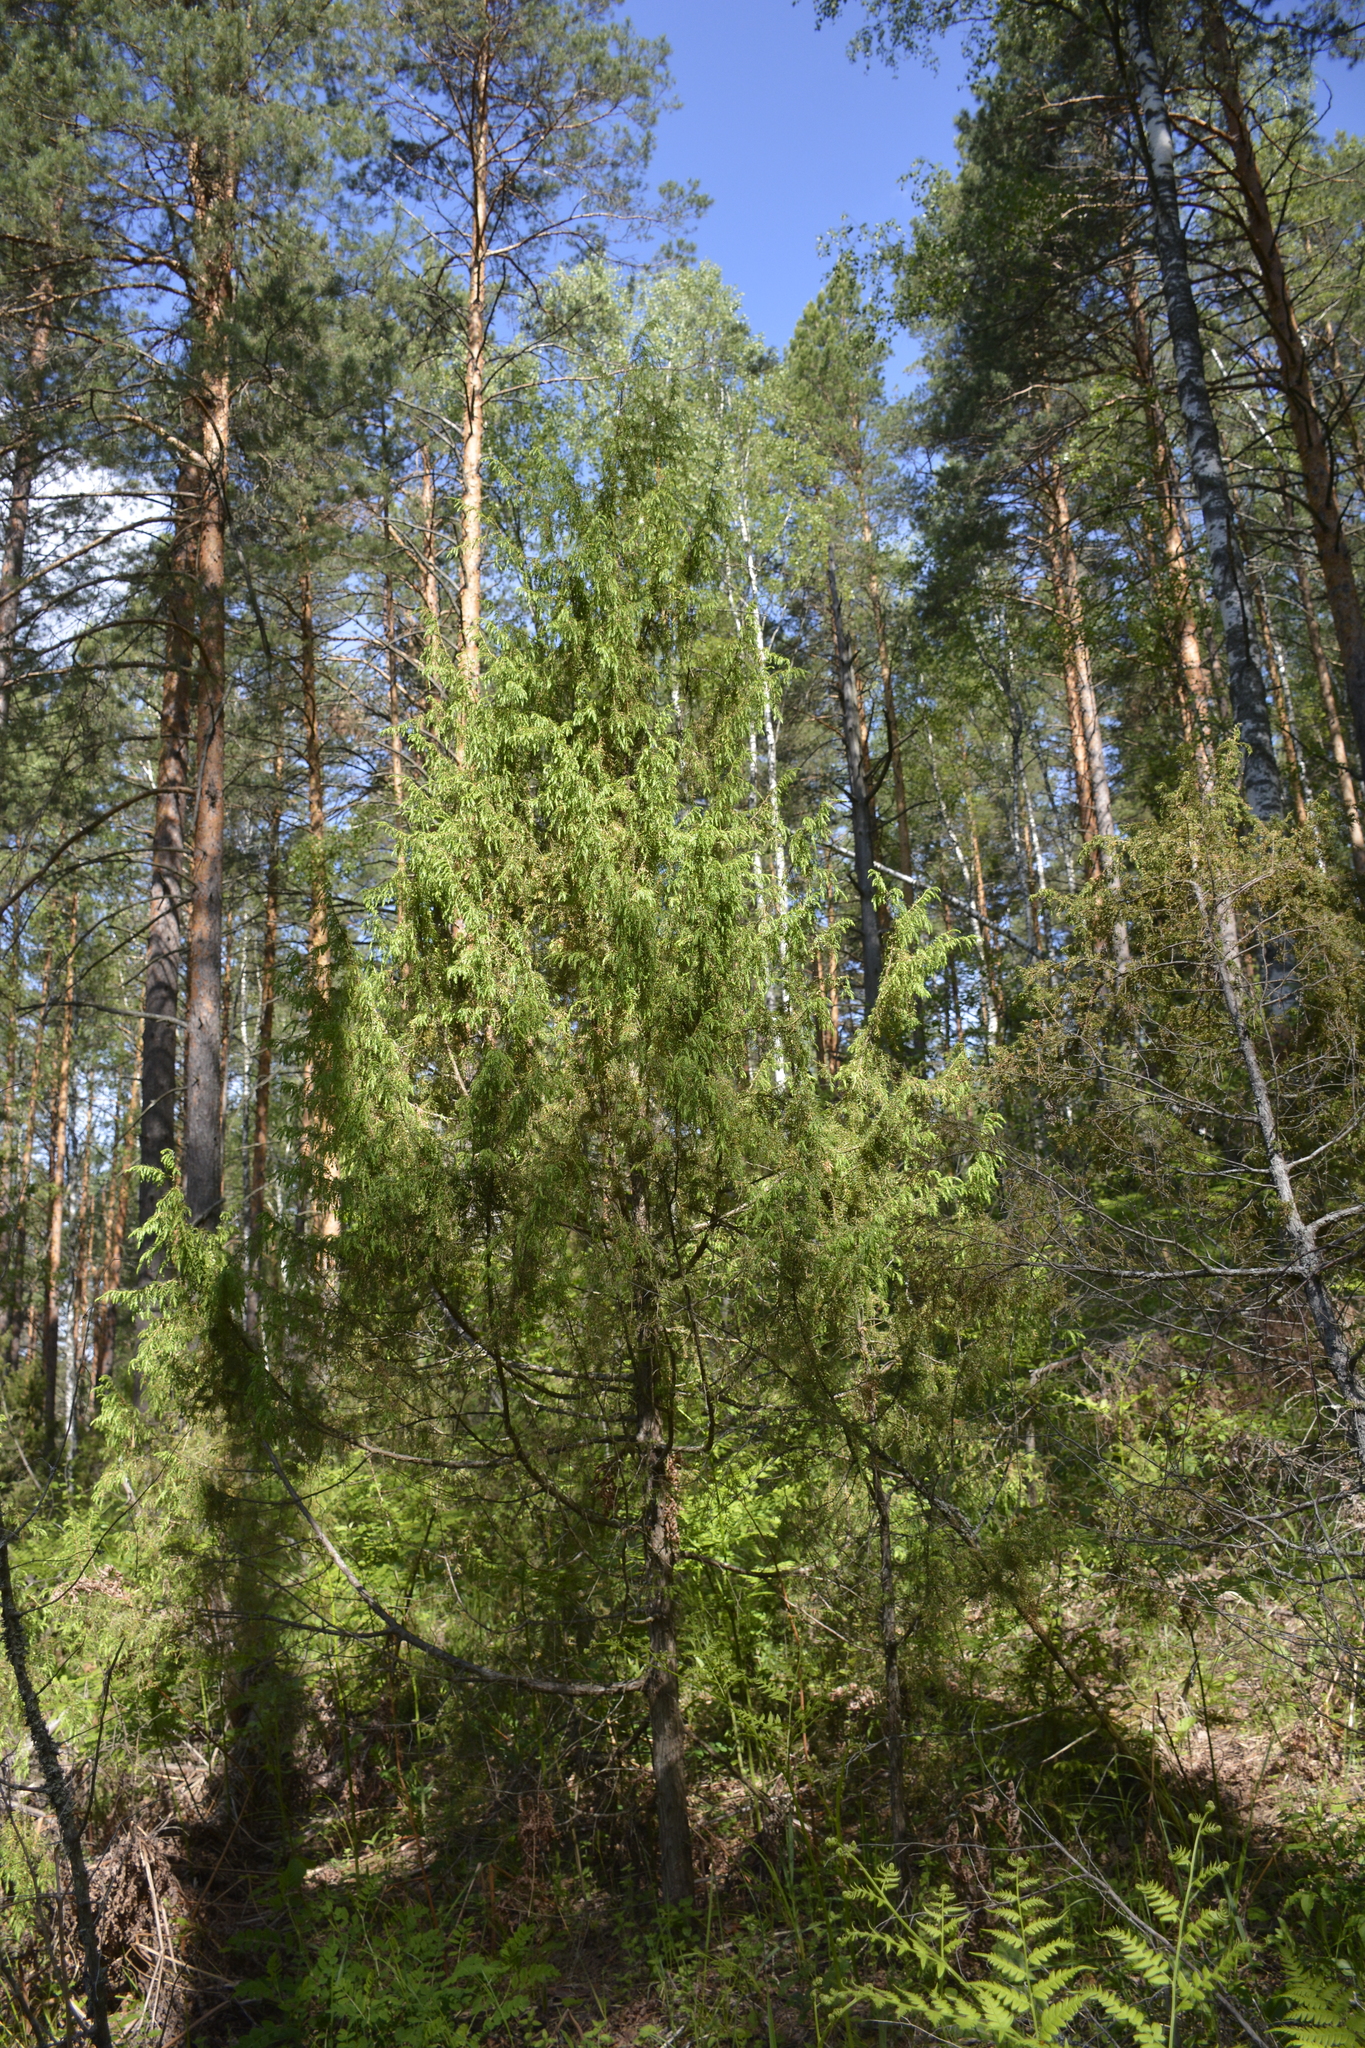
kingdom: Plantae
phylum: Tracheophyta
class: Pinopsida
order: Pinales
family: Cupressaceae
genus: Juniperus
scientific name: Juniperus communis
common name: Common juniper
